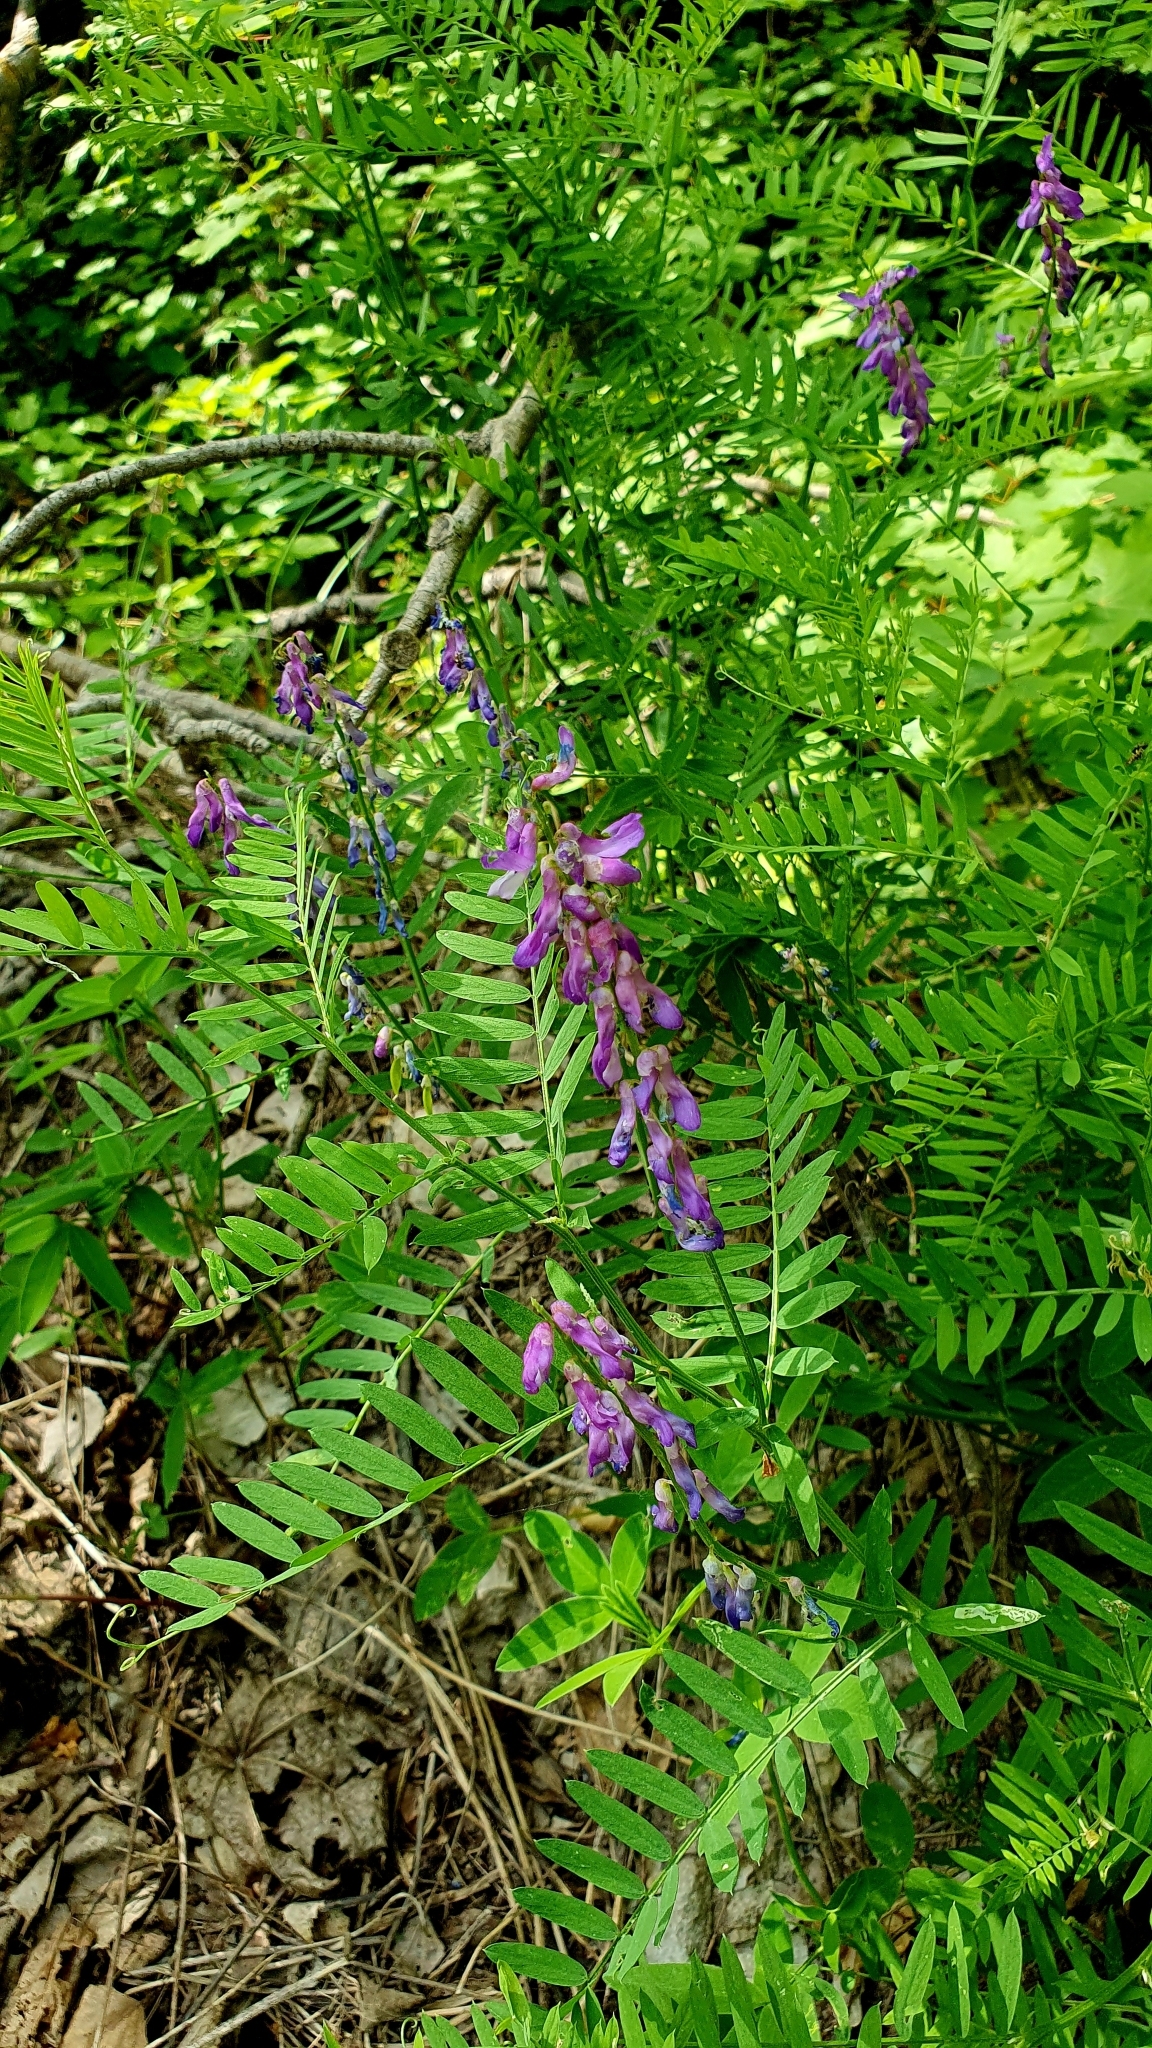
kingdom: Plantae
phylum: Tracheophyta
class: Magnoliopsida
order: Fabales
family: Fabaceae
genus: Vicia
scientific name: Vicia tenuifolia
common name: Fine-leaved vetch
